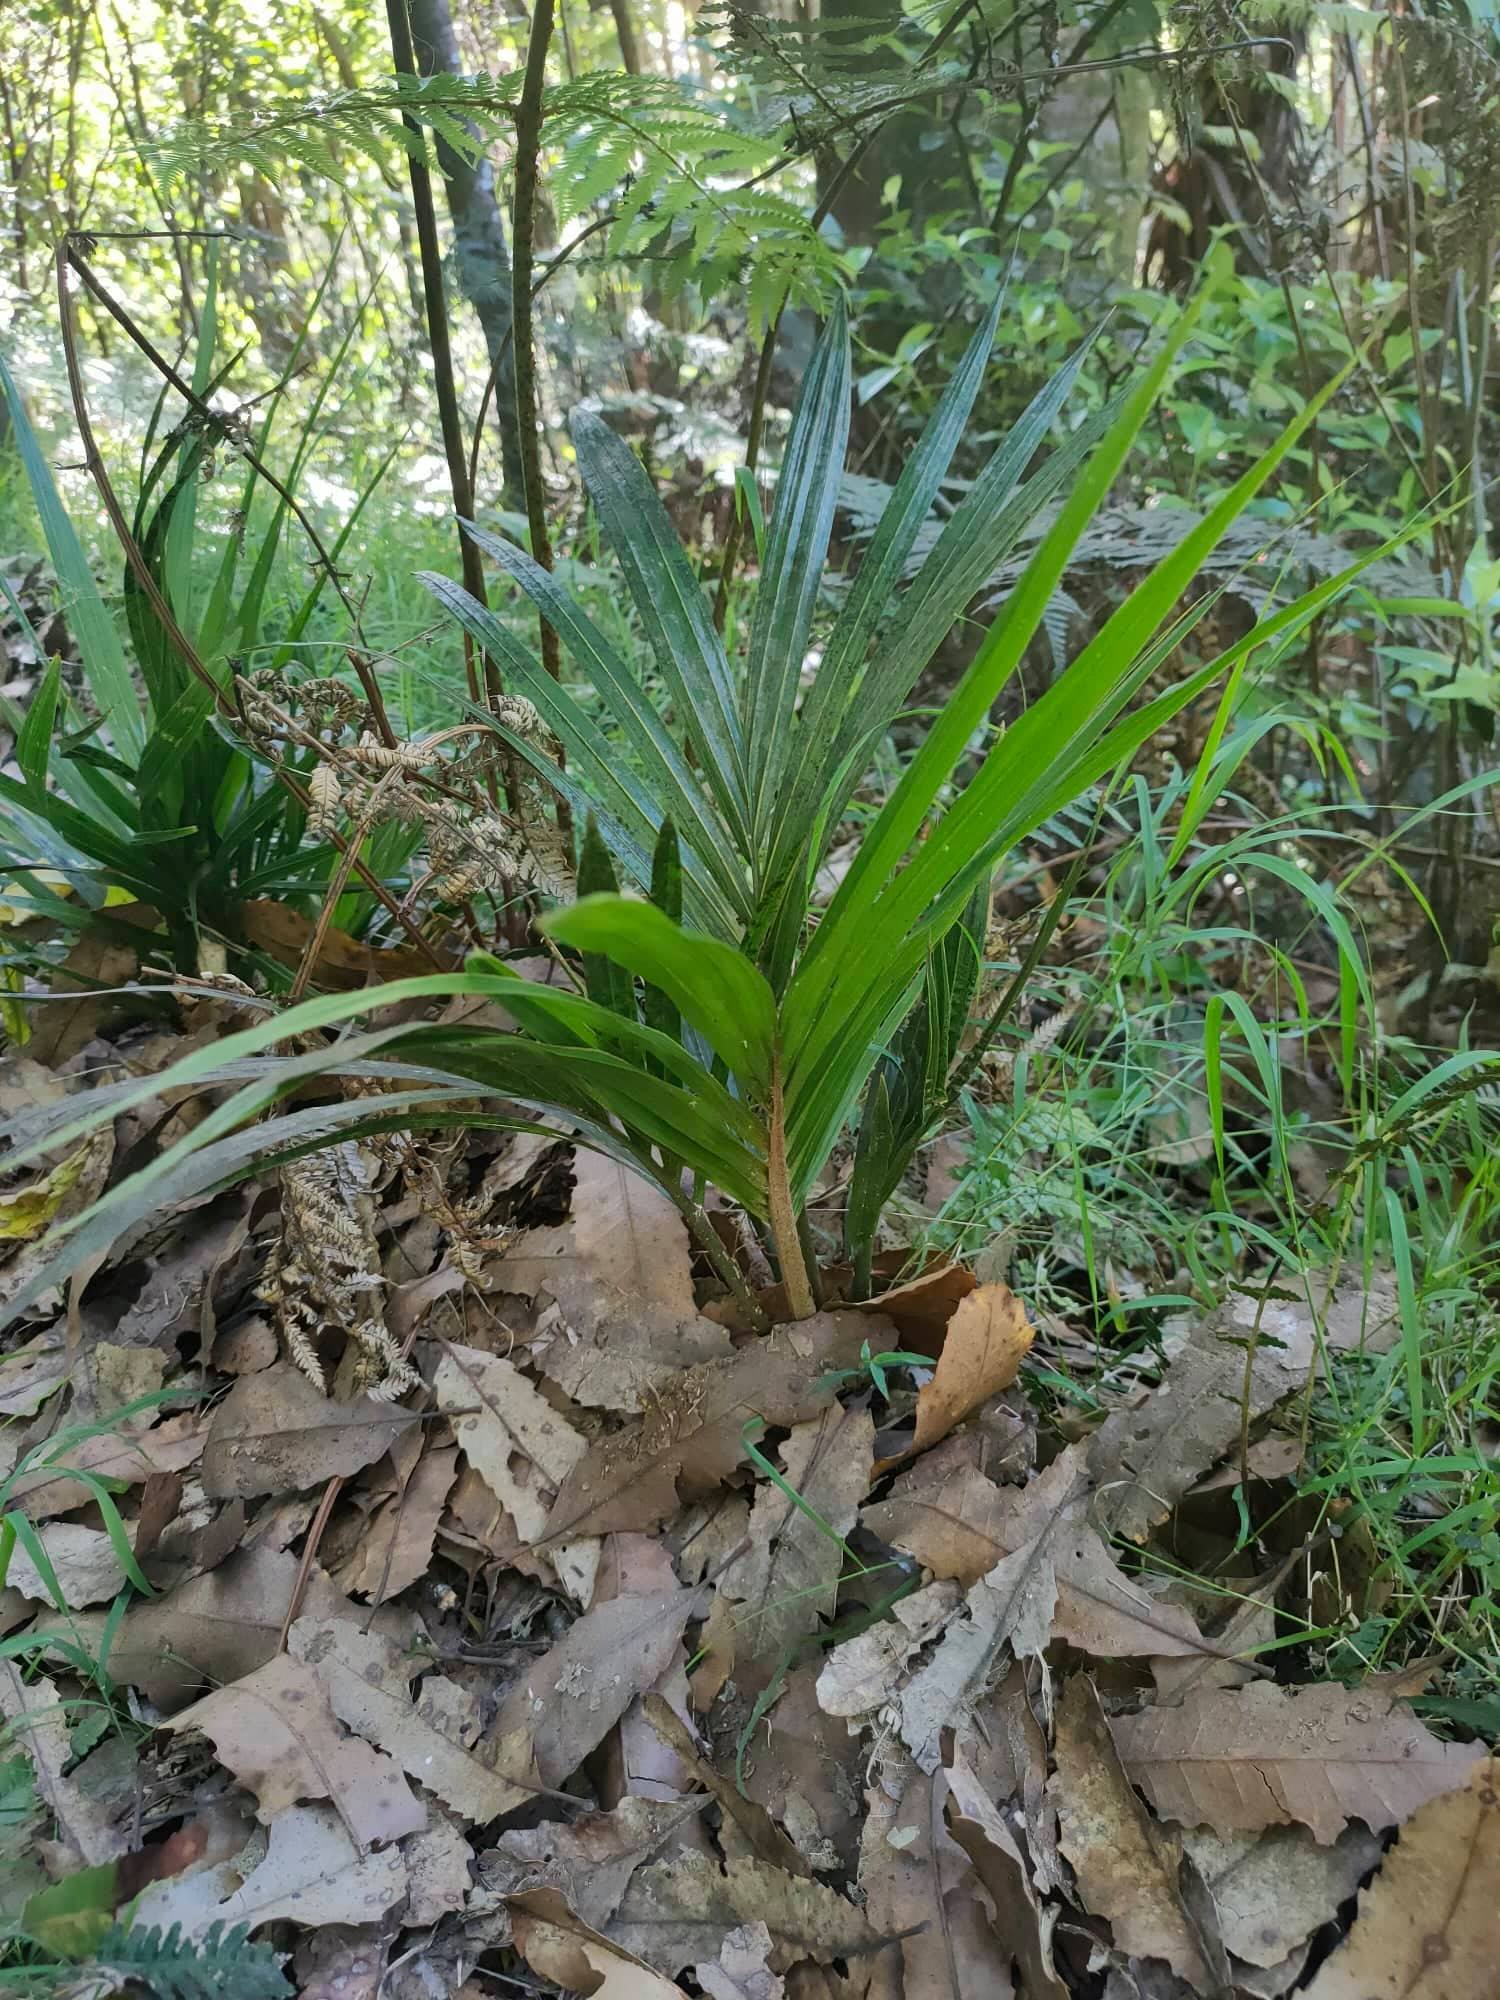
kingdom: Plantae
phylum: Tracheophyta
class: Liliopsida
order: Arecales
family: Arecaceae
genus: Rhopalostylis
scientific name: Rhopalostylis sapida
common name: Feather-duster palm
